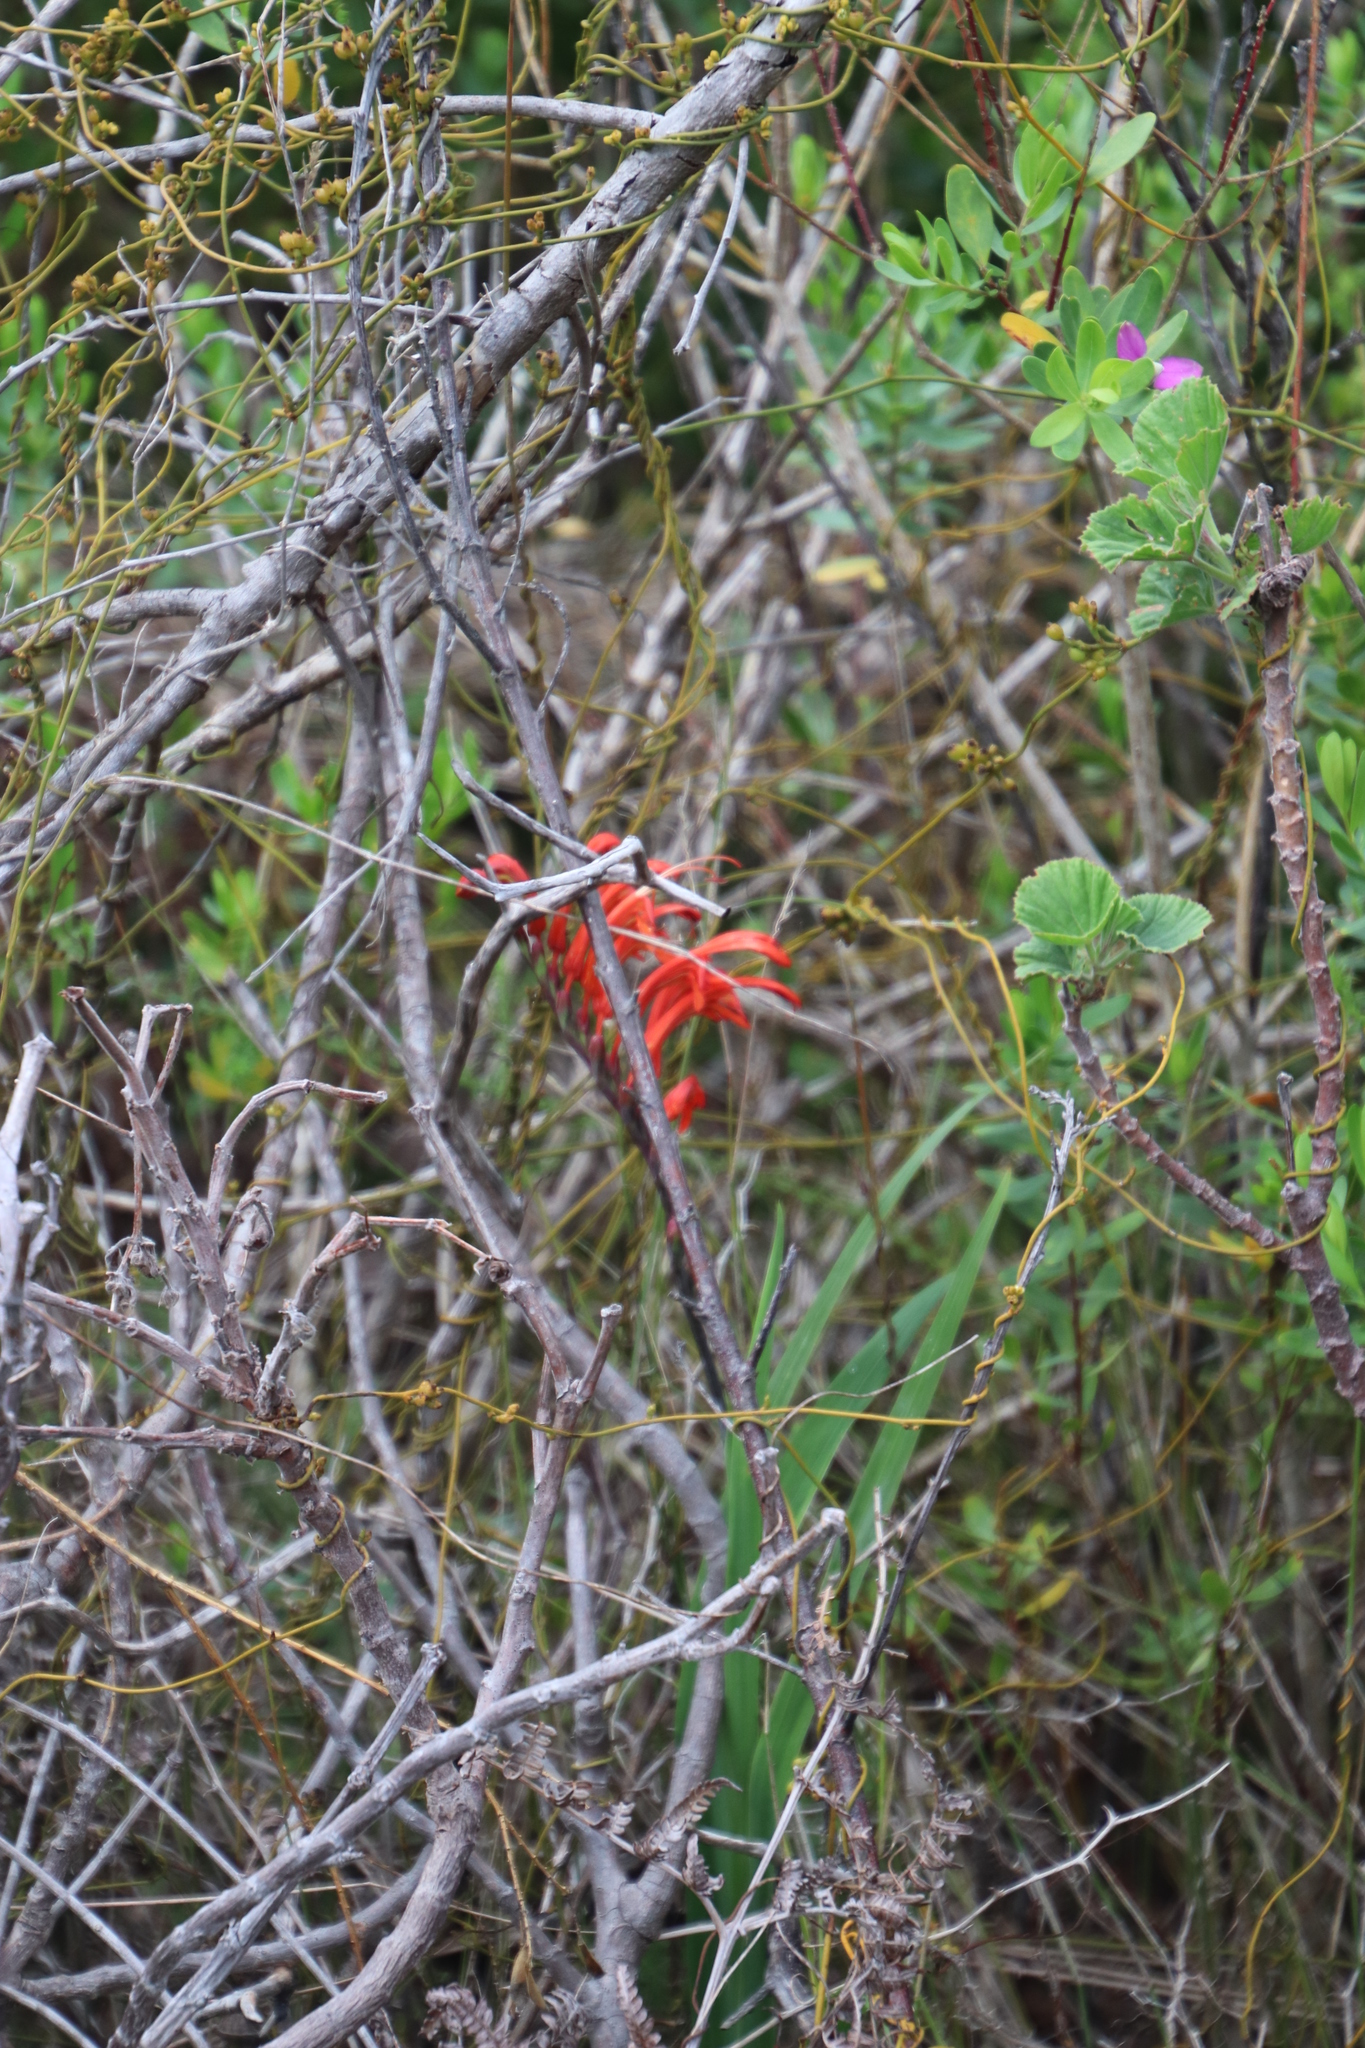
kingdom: Plantae
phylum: Tracheophyta
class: Liliopsida
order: Asparagales
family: Iridaceae
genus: Chasmanthe
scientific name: Chasmanthe aethiopica
